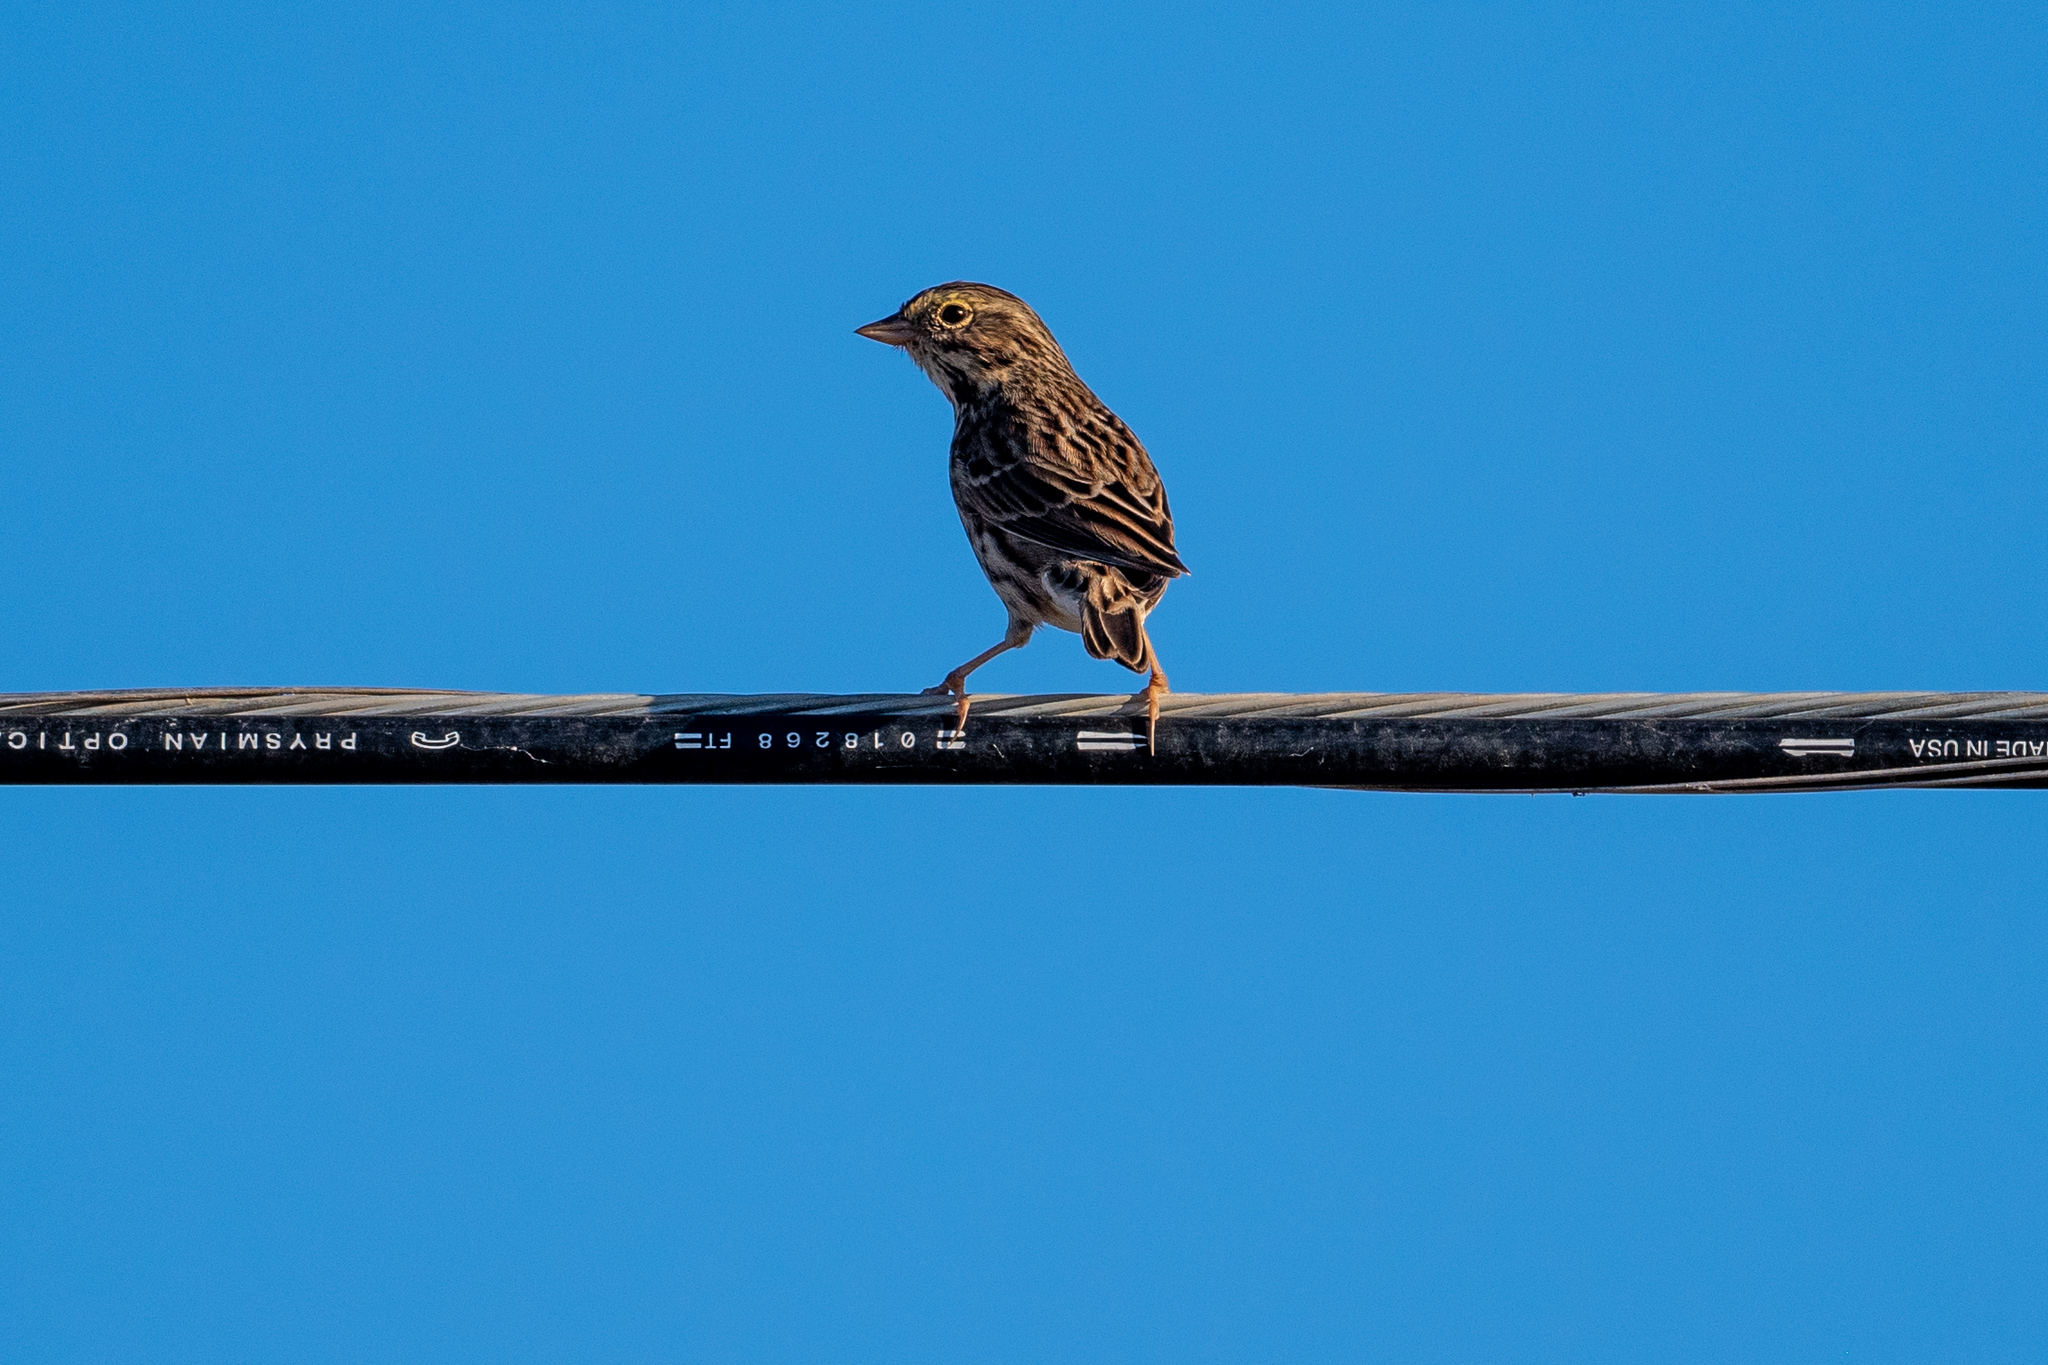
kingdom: Animalia
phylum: Chordata
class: Aves
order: Passeriformes
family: Passerellidae
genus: Passerculus
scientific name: Passerculus sandwichensis
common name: Savannah sparrow
